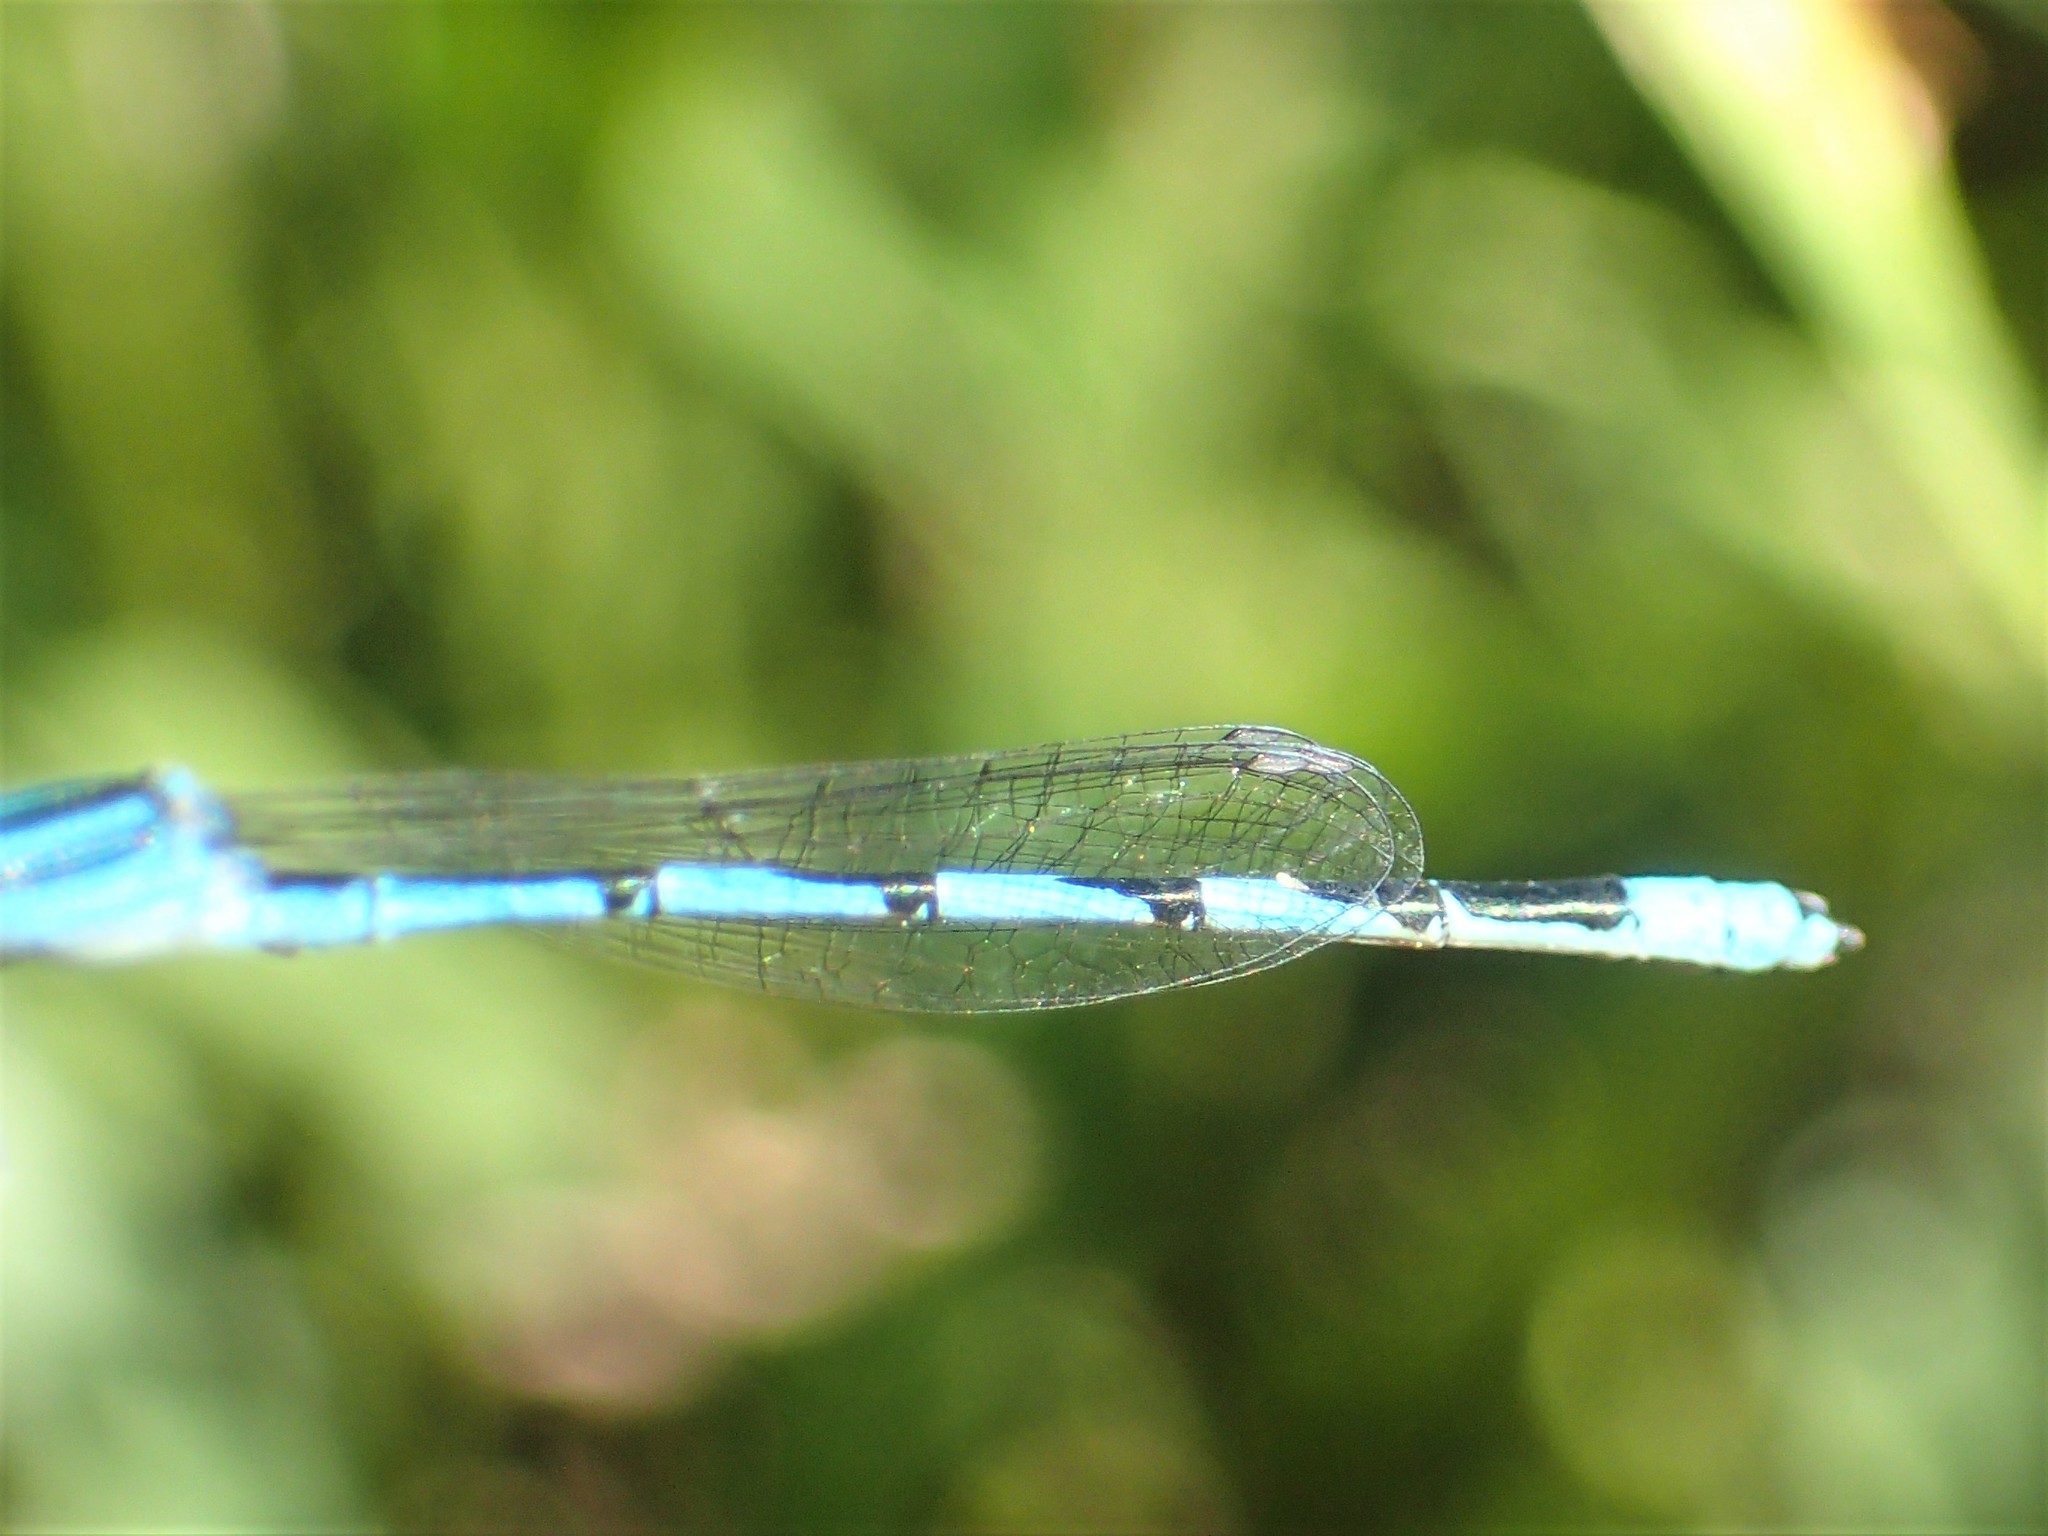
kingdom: Animalia
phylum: Arthropoda
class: Insecta
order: Odonata
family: Coenagrionidae
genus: Enallagma
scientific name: Enallagma basidens
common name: Double-striped bluet
